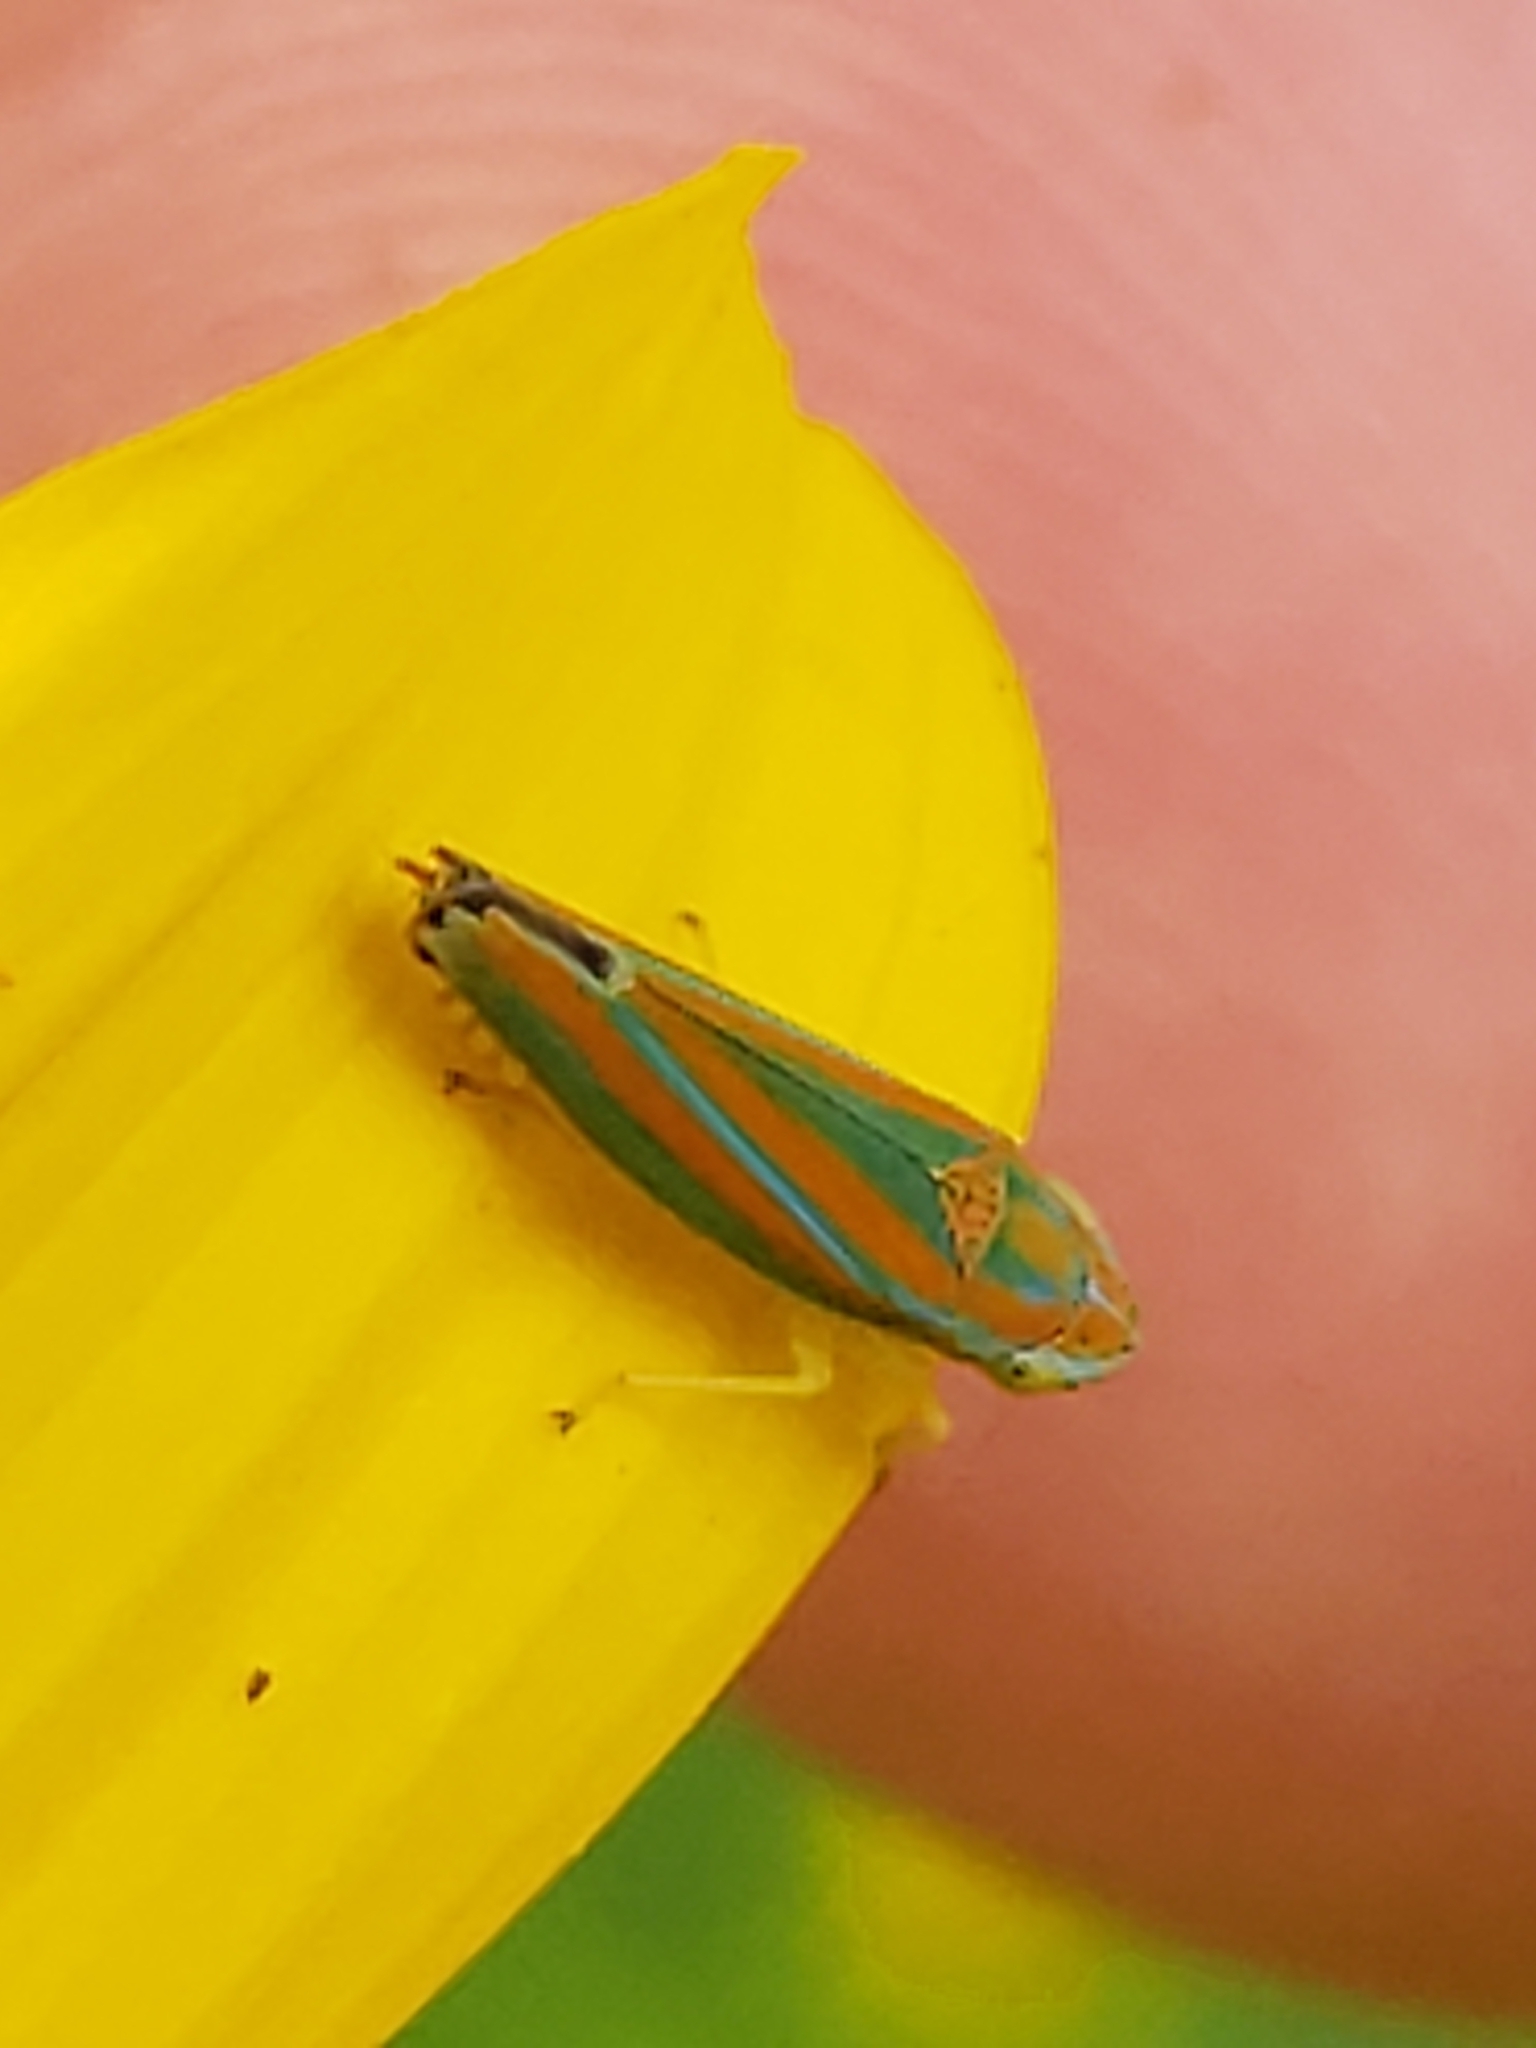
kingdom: Animalia
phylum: Arthropoda
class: Insecta
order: Hemiptera
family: Cicadellidae
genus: Graphocephala
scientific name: Graphocephala versuta
